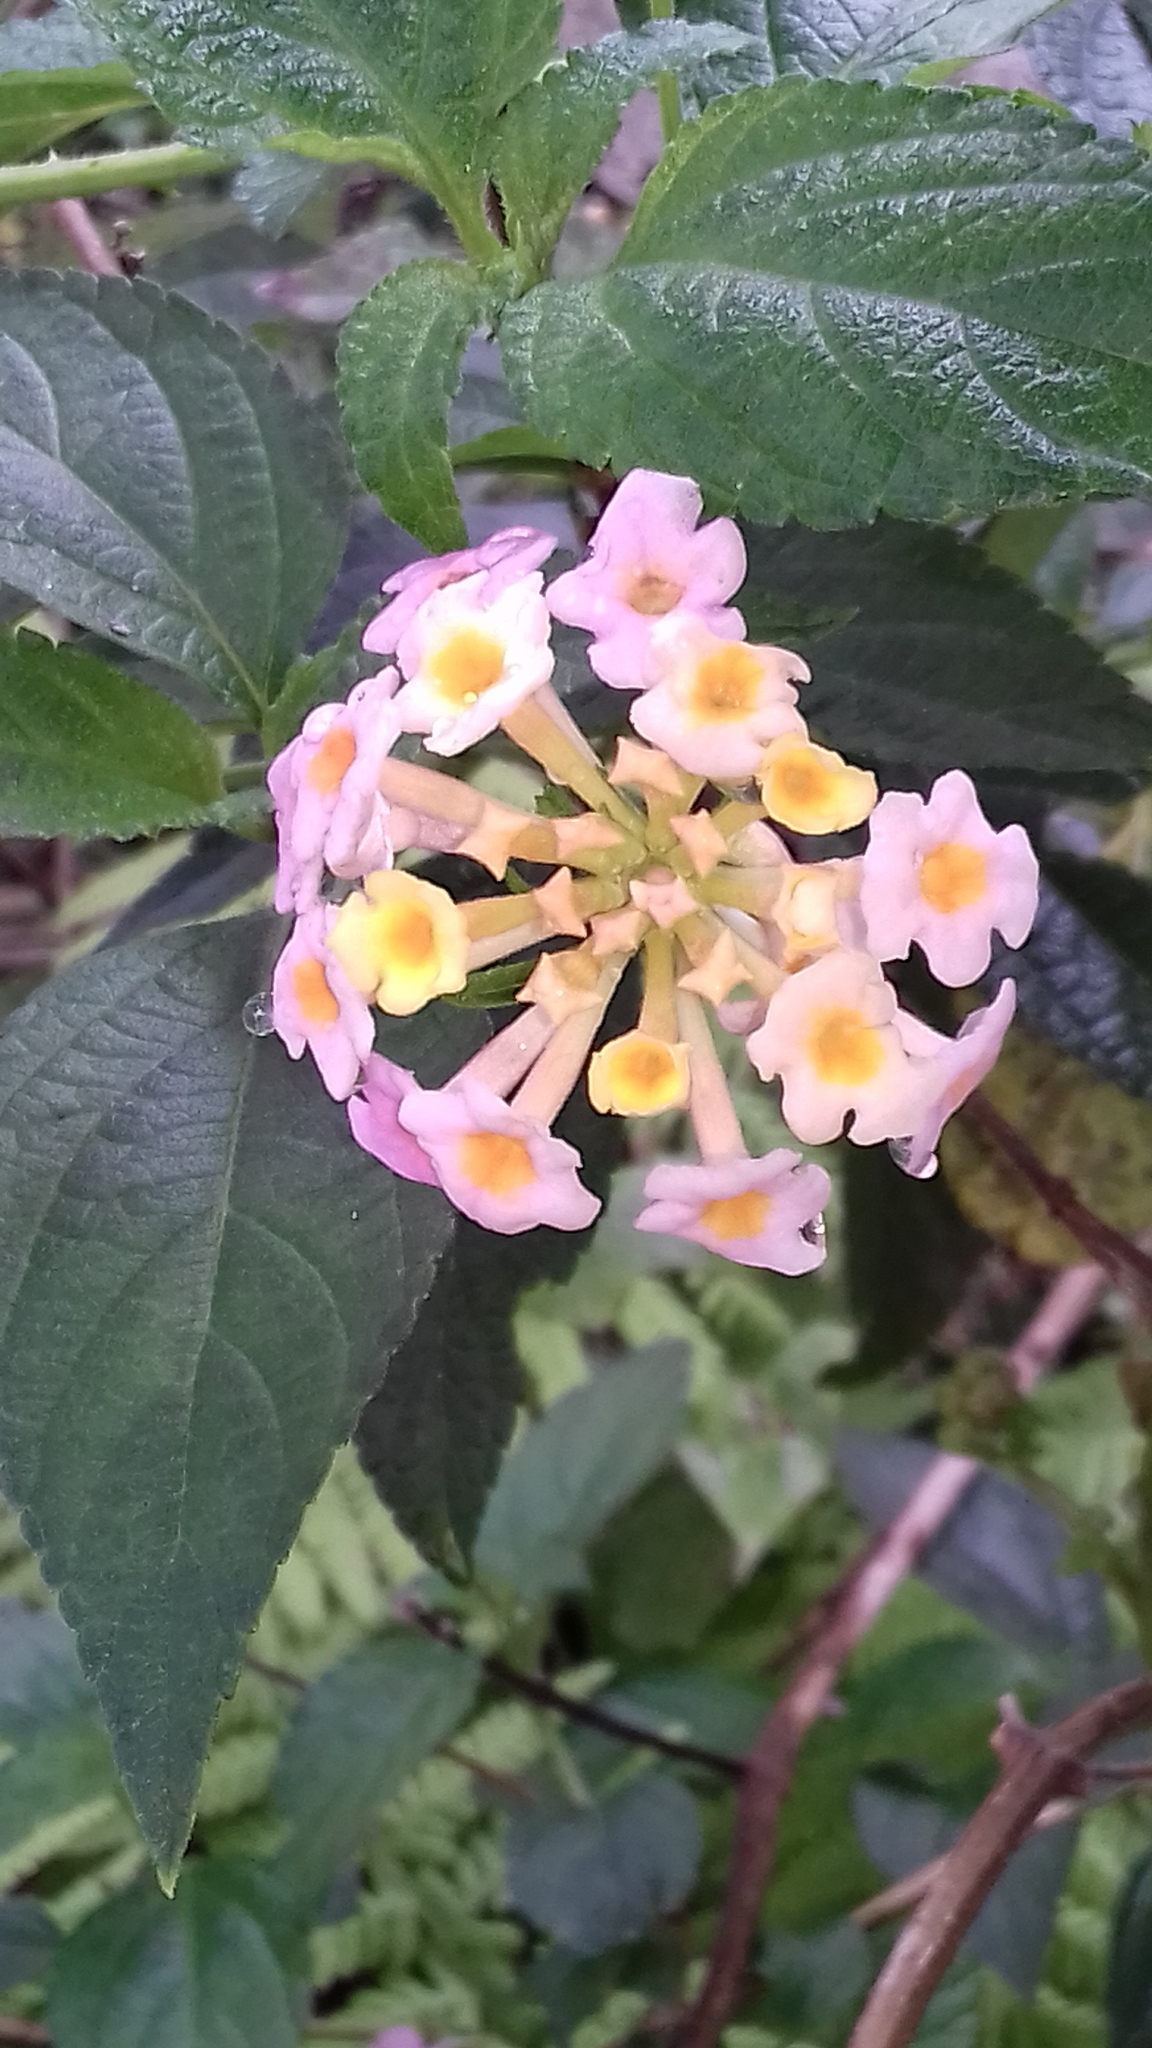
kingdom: Plantae
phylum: Tracheophyta
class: Magnoliopsida
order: Lamiales
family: Verbenaceae
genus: Lantana
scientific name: Lantana camara
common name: Lantana
